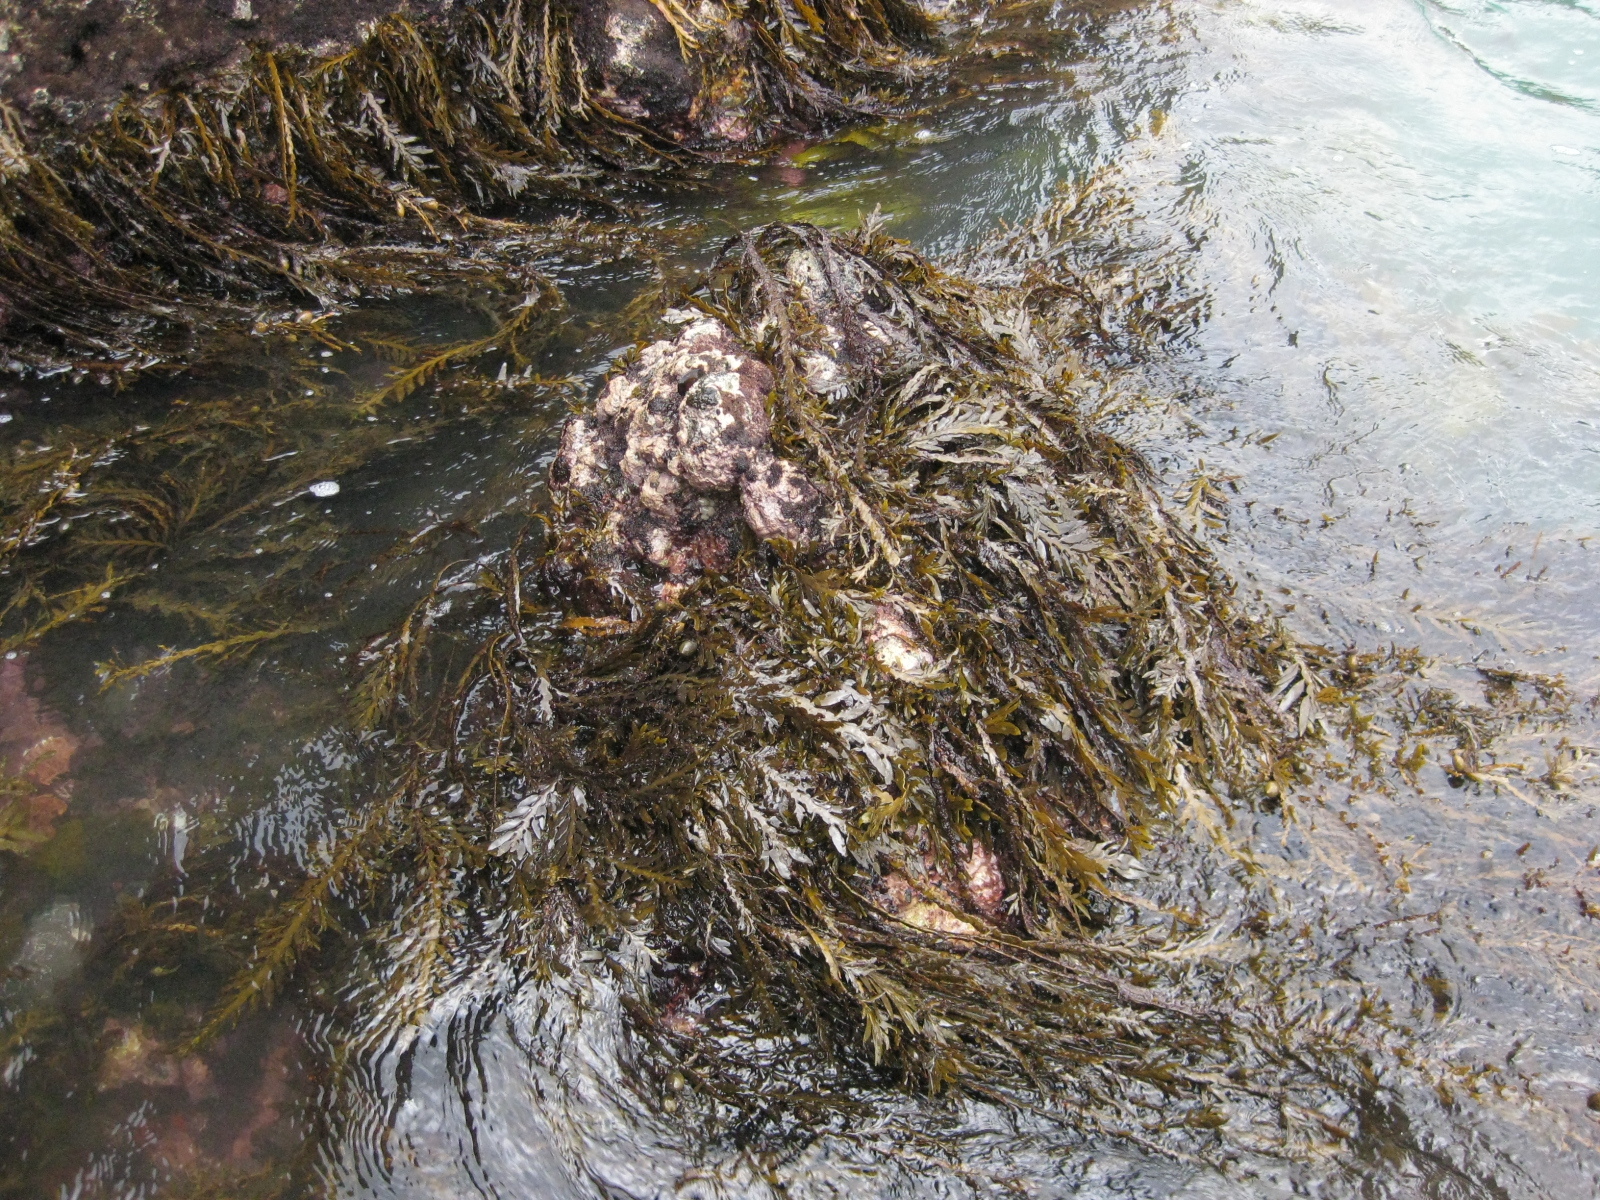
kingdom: Chromista
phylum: Ochrophyta
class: Phaeophyceae
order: Fucales
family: Sargassaceae
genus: Carpophyllum
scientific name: Carpophyllum maschalocarpum
